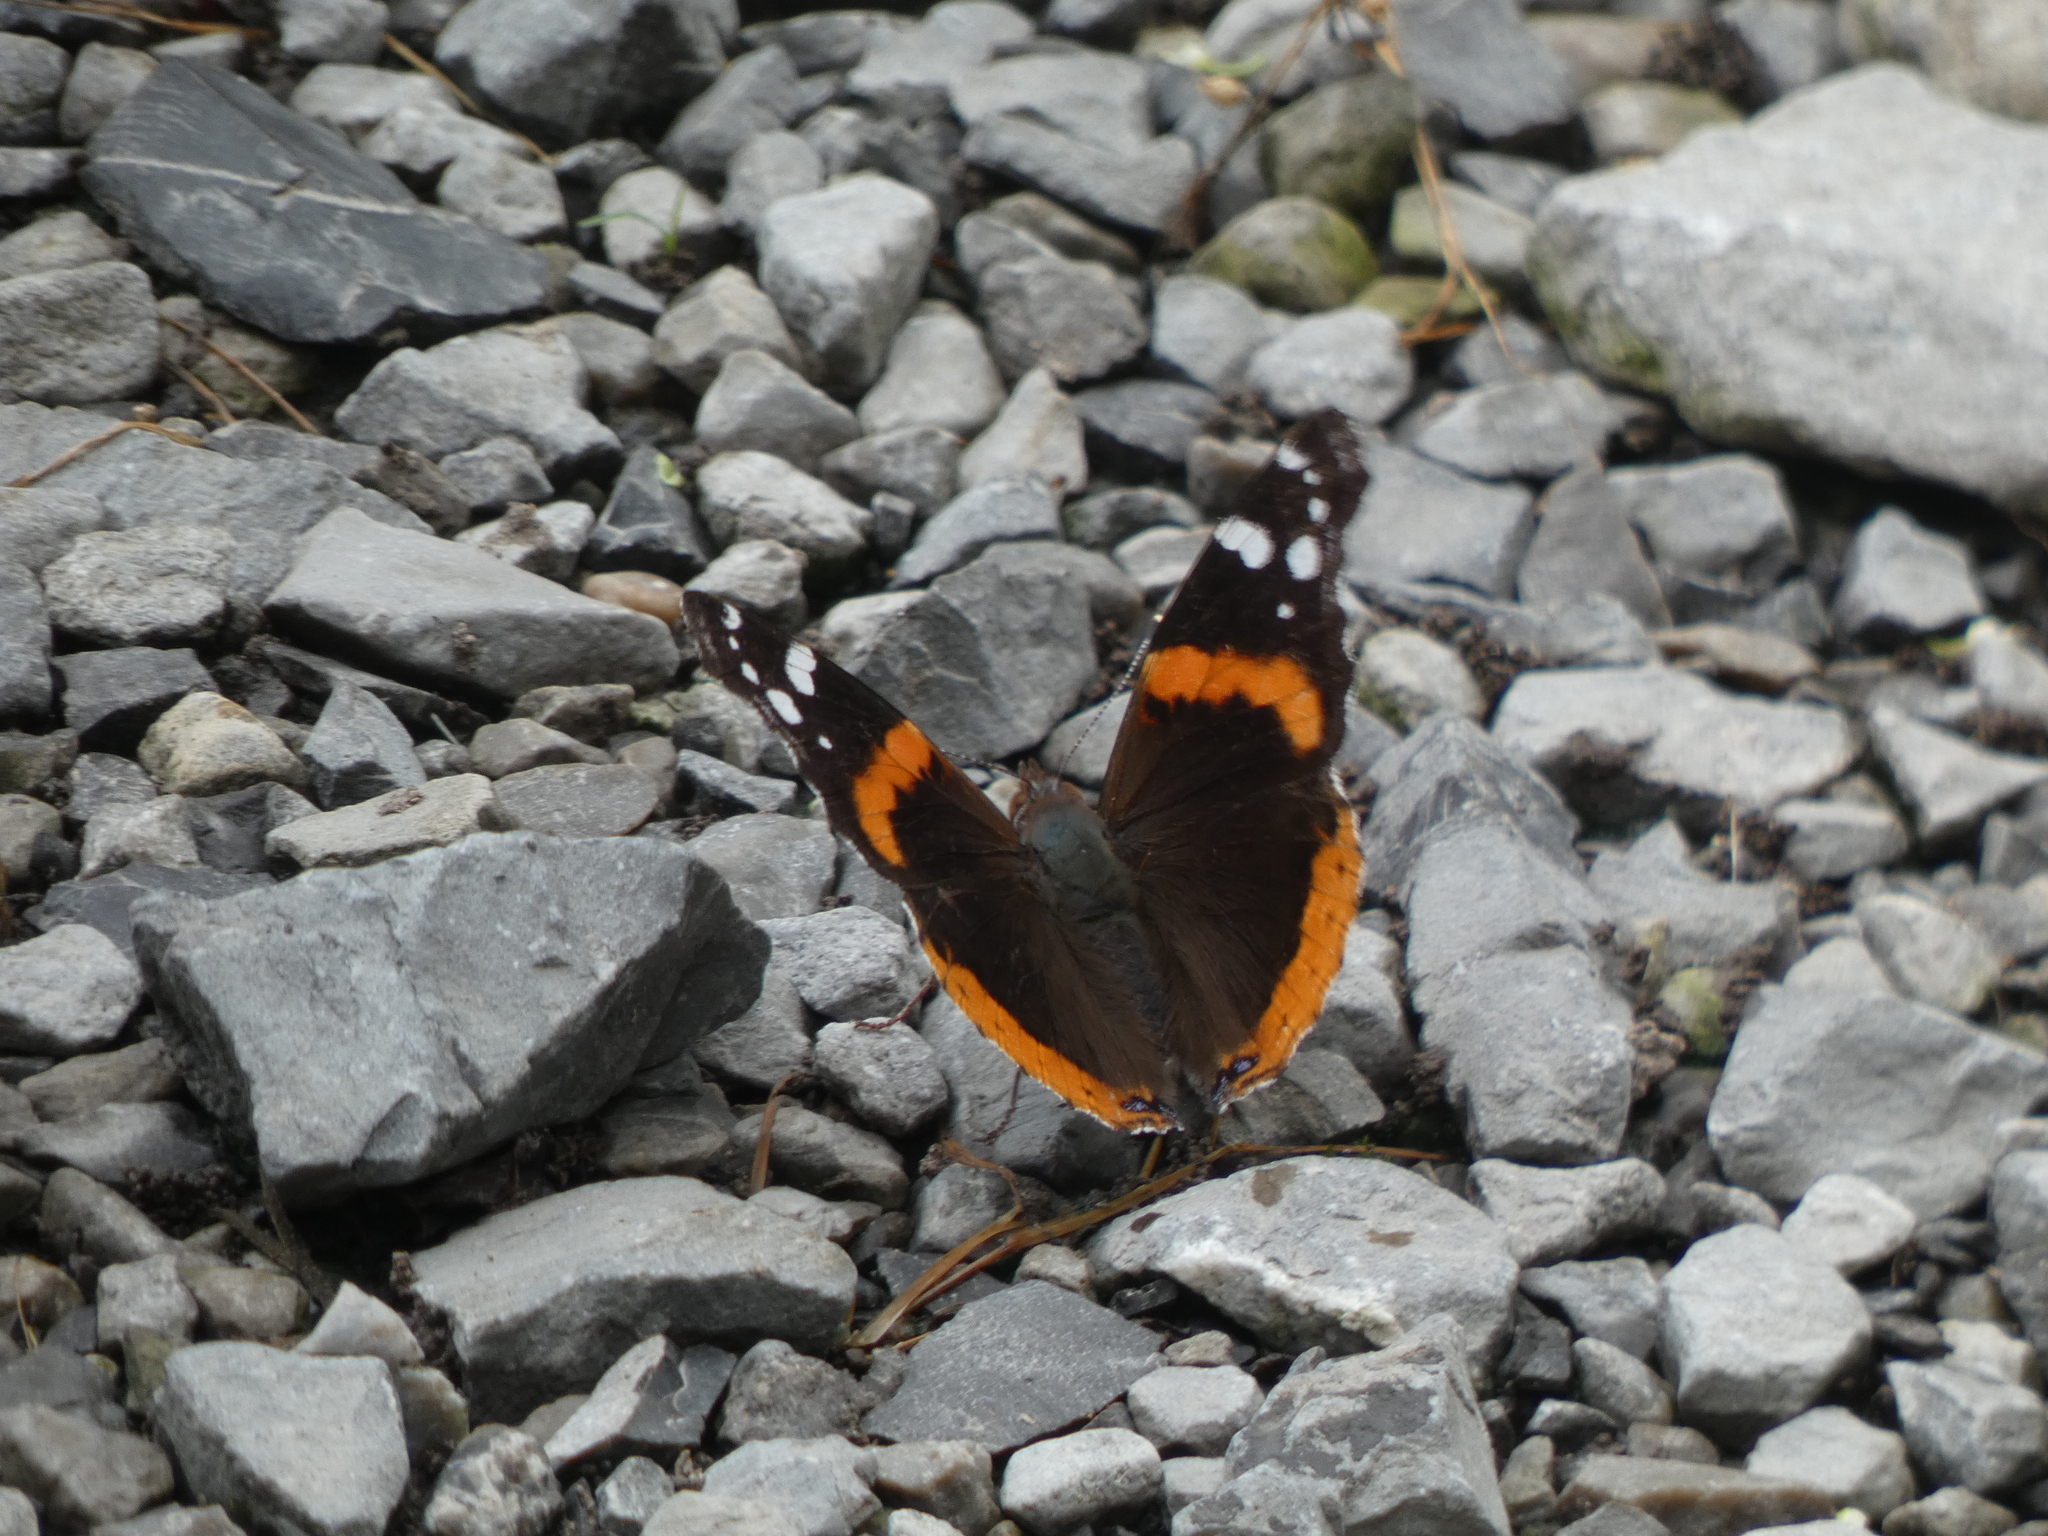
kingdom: Animalia
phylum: Arthropoda
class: Insecta
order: Lepidoptera
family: Nymphalidae
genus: Vanessa
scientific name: Vanessa atalanta
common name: Red admiral
